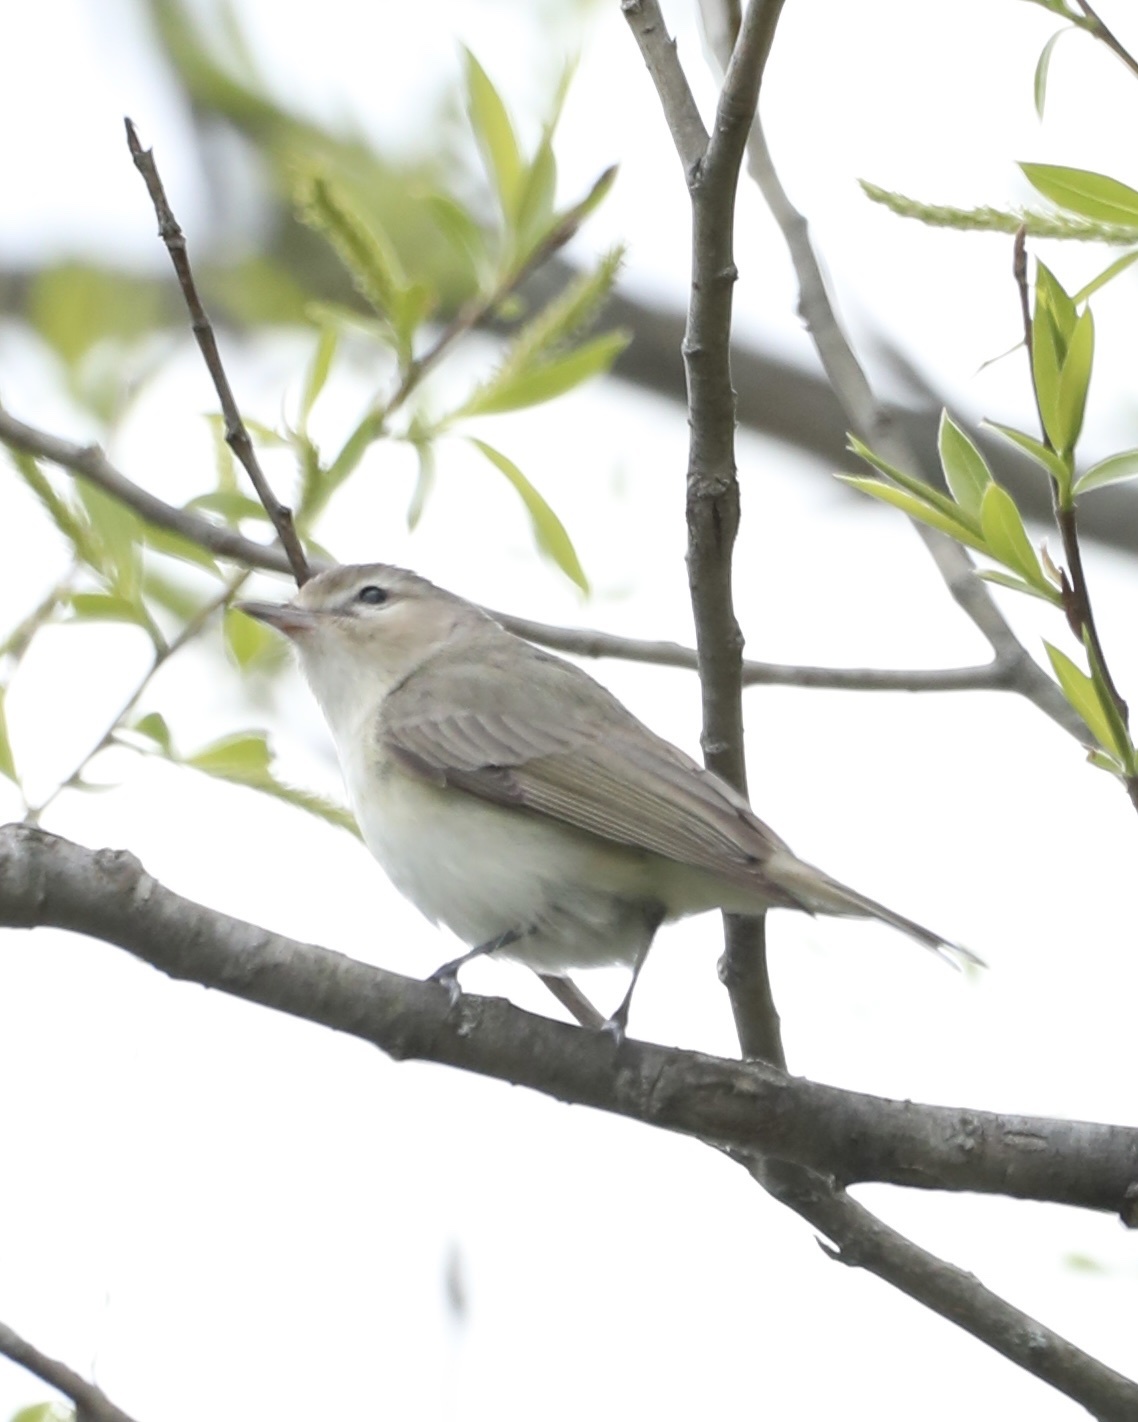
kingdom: Animalia
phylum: Chordata
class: Aves
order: Passeriformes
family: Vireonidae
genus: Vireo
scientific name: Vireo gilvus
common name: Warbling vireo
